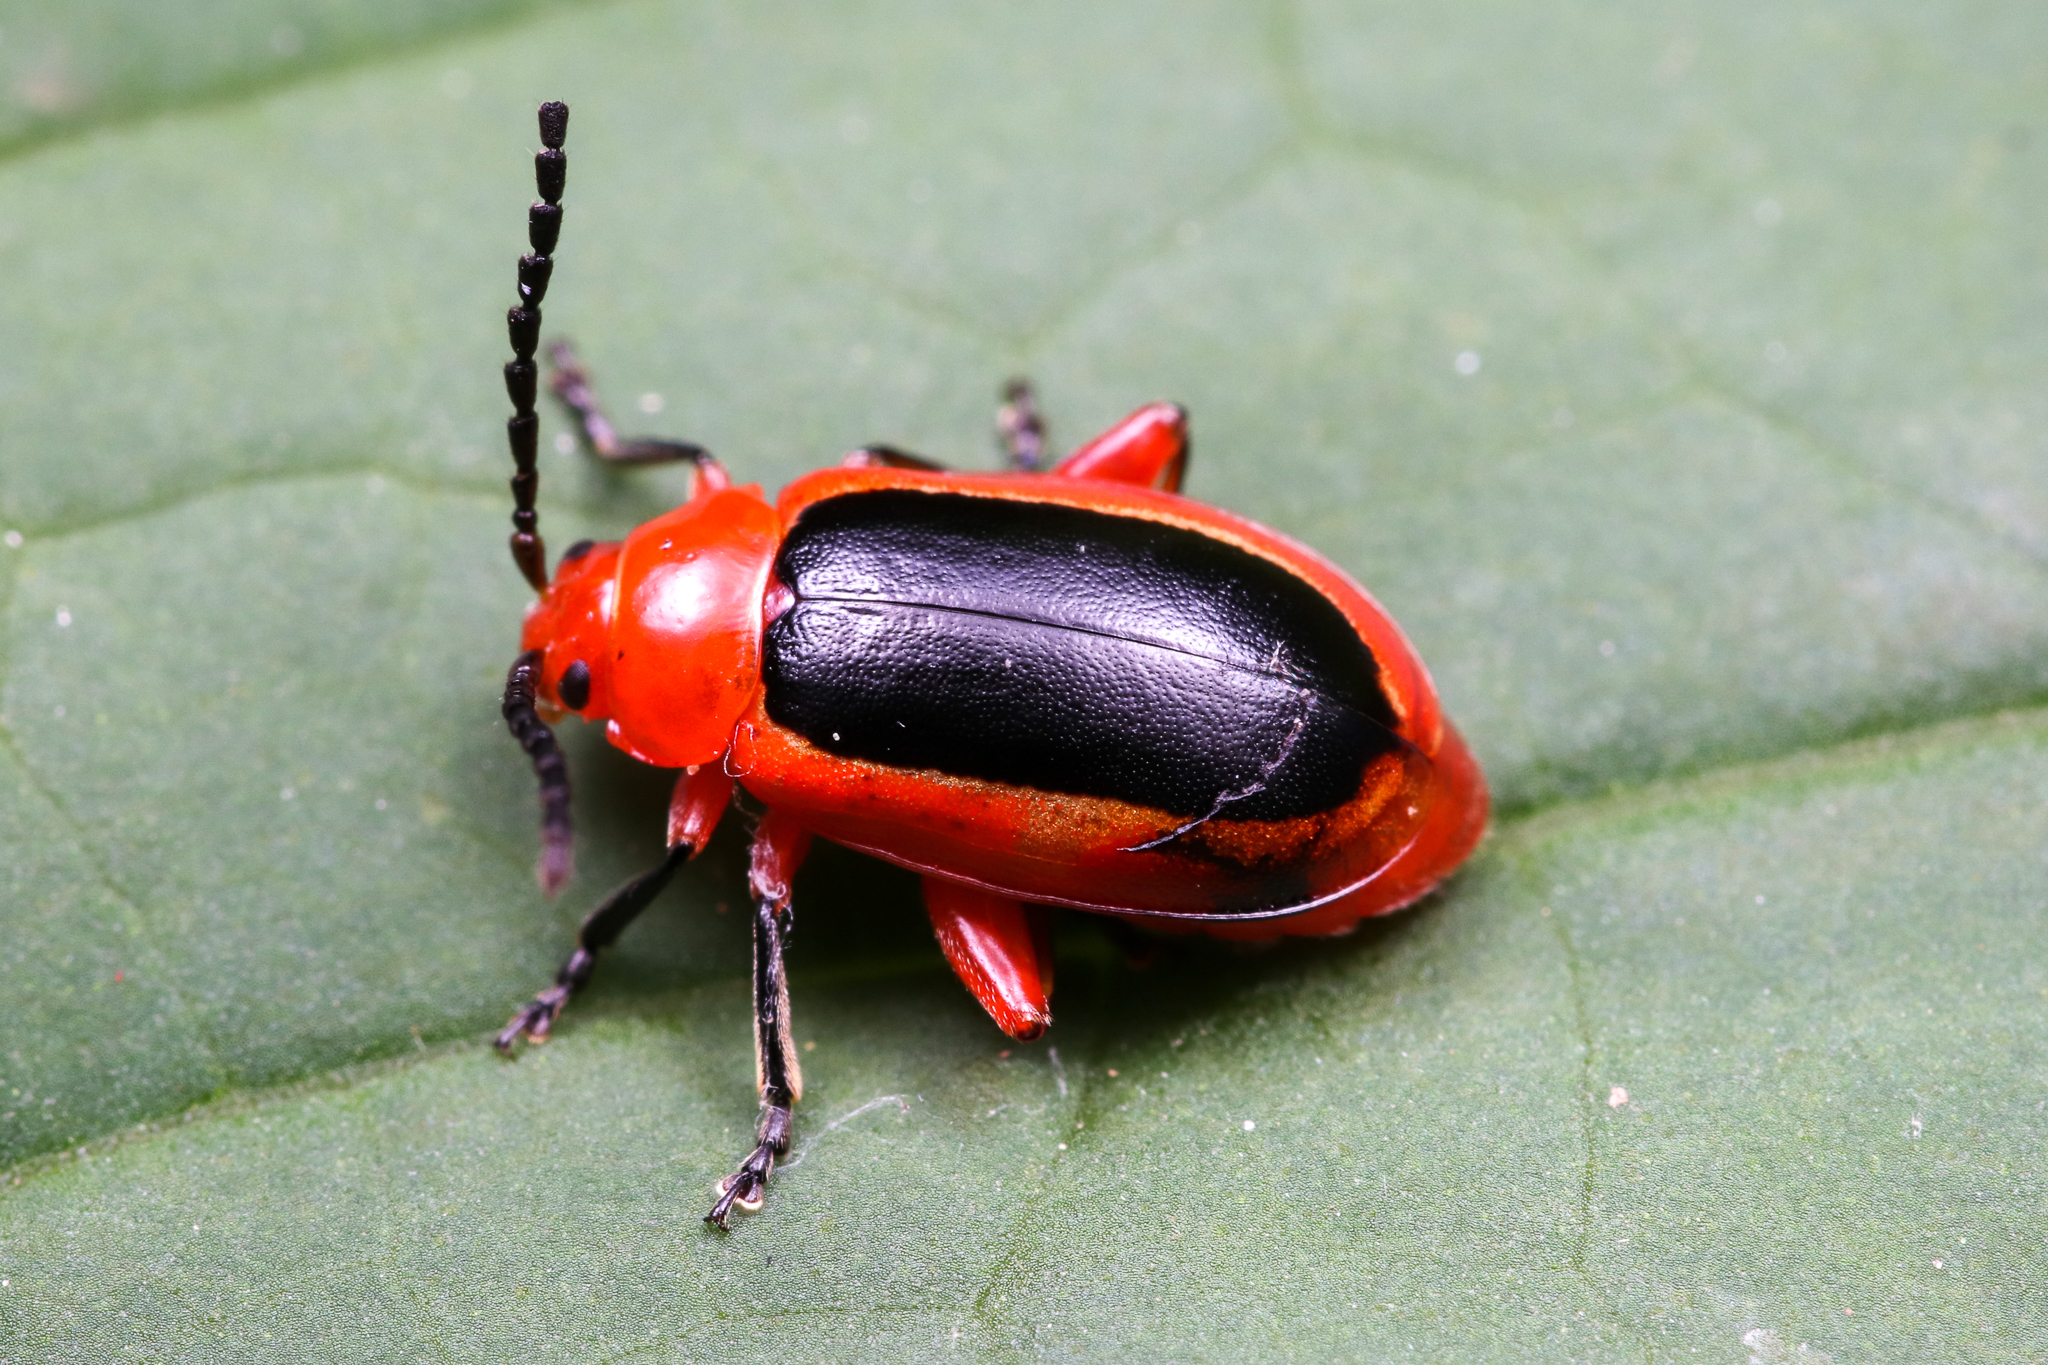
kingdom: Animalia
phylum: Arthropoda
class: Insecta
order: Coleoptera
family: Chrysomelidae
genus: Disonycha
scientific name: Disonycha discoidea
